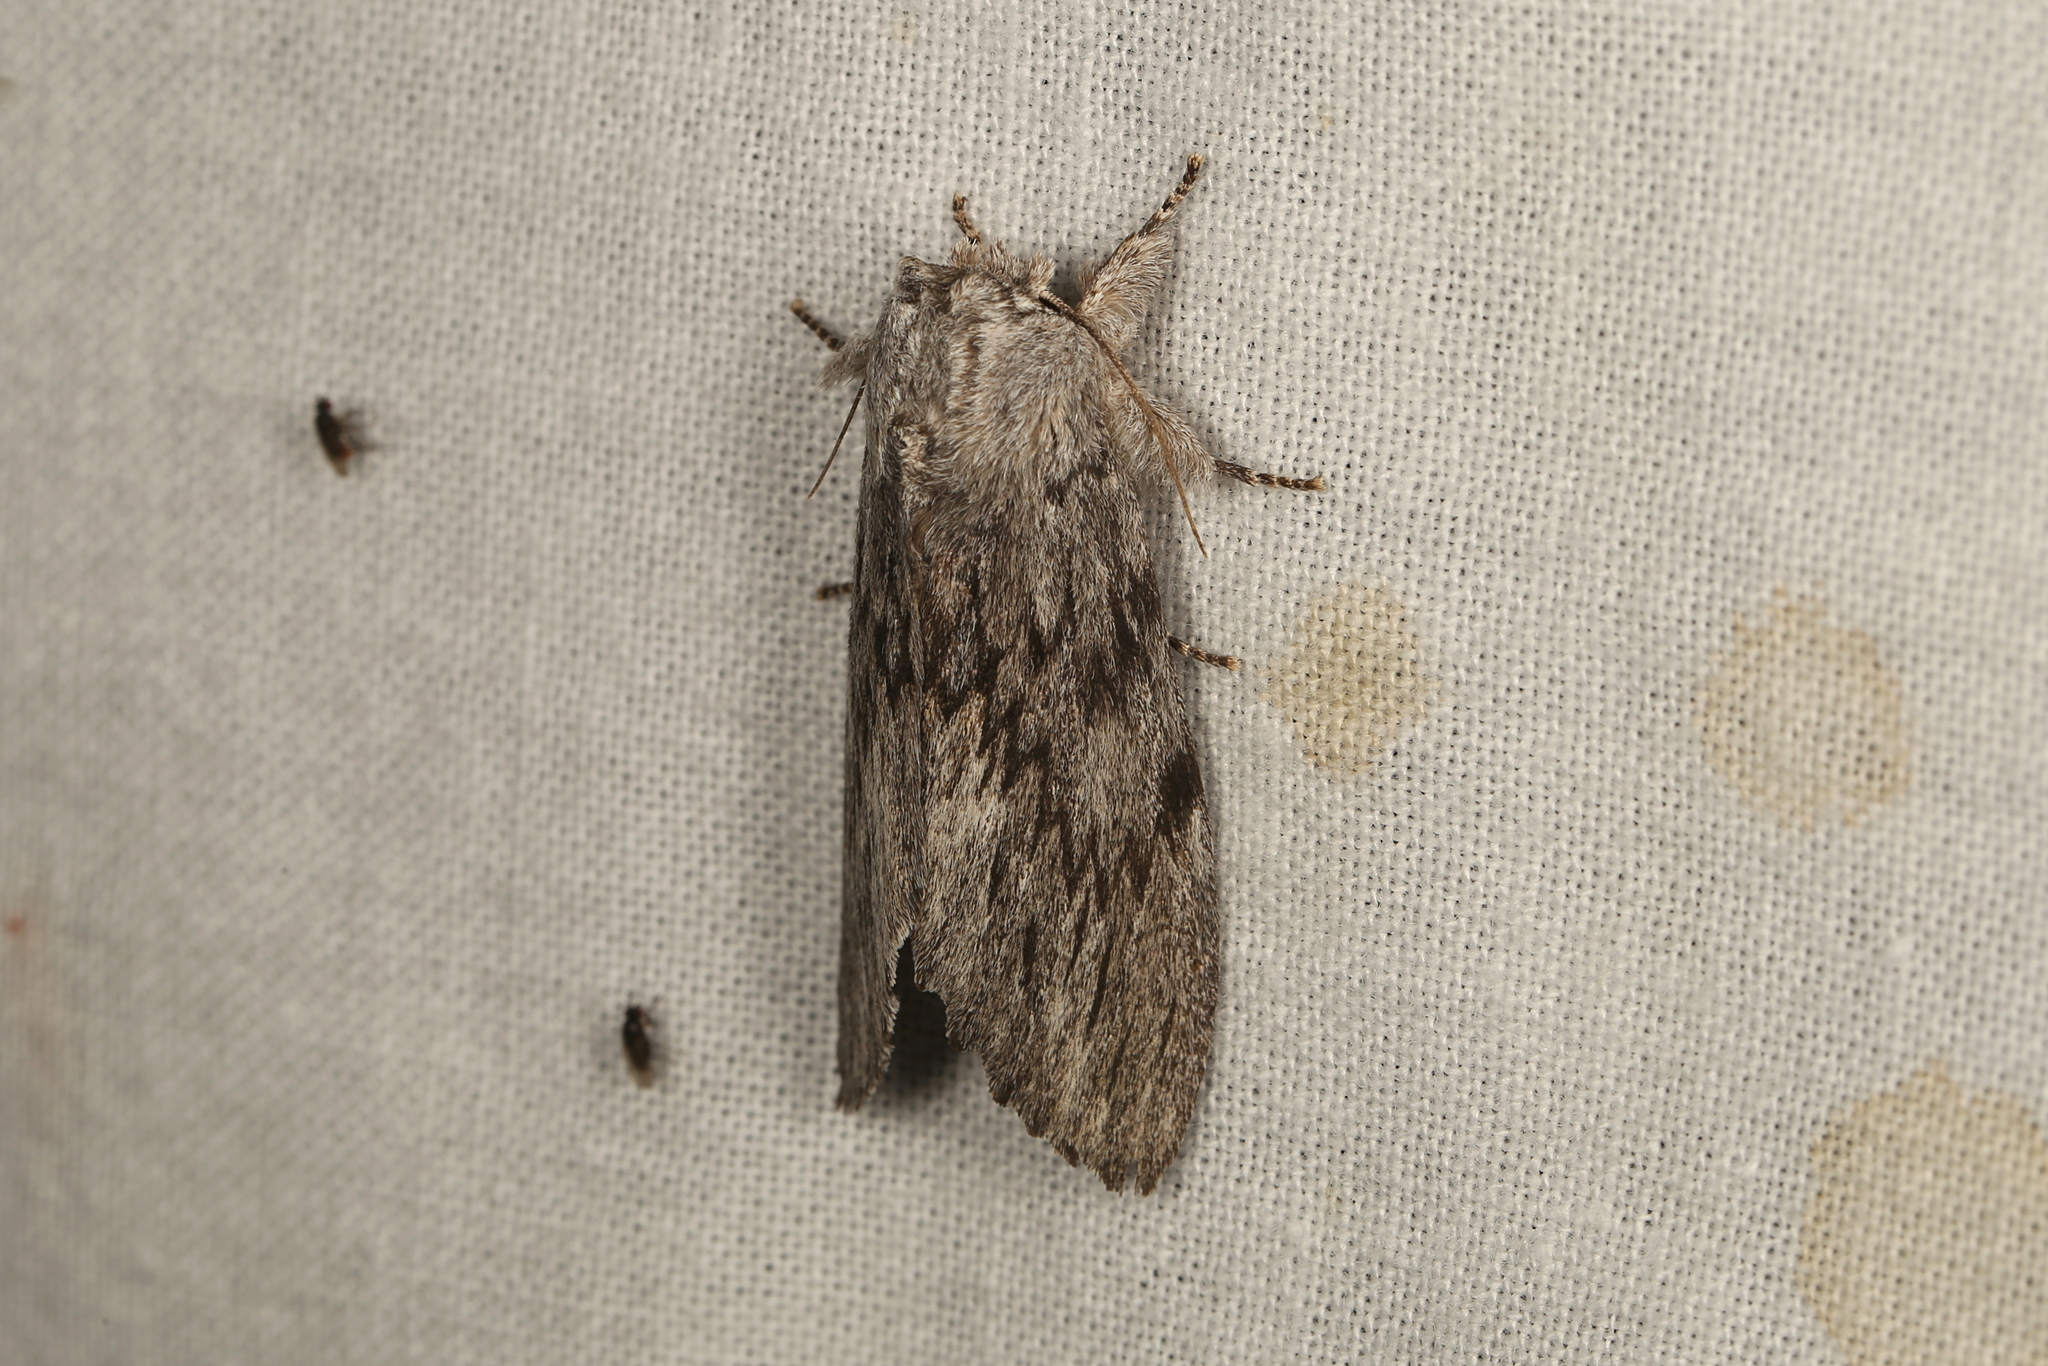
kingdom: Animalia
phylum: Arthropoda
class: Insecta
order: Lepidoptera
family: Notodontidae
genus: Destolmia
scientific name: Destolmia lineata
